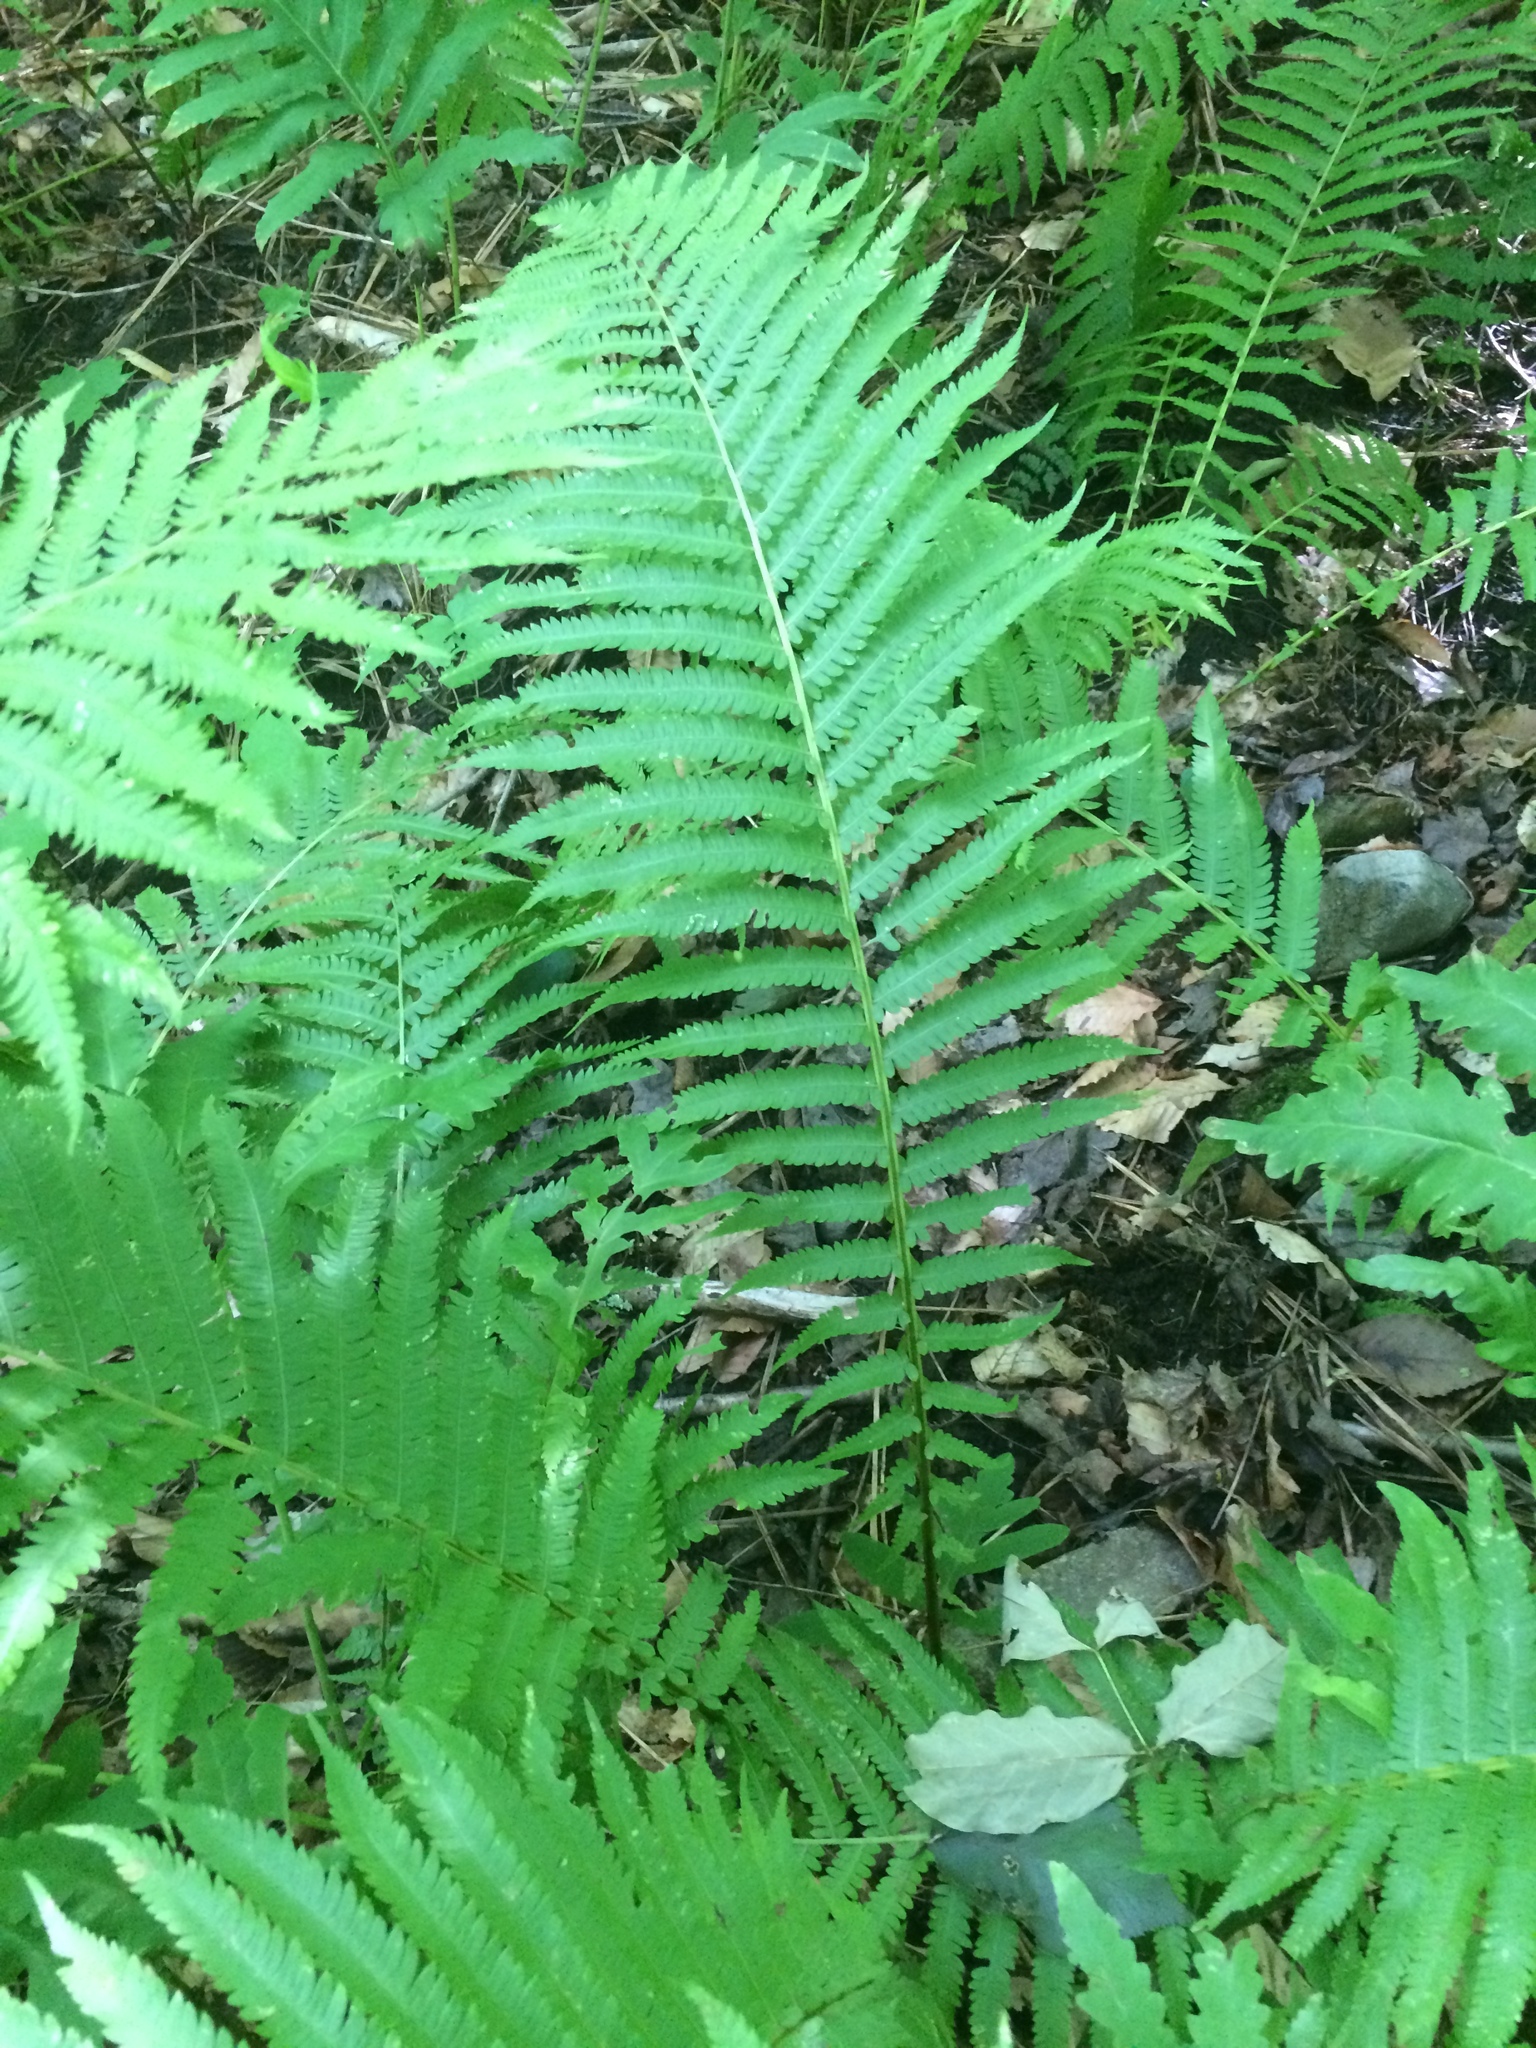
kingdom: Plantae
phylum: Tracheophyta
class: Polypodiopsida
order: Polypodiales
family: Onocleaceae
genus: Matteuccia
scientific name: Matteuccia pensylvanica
